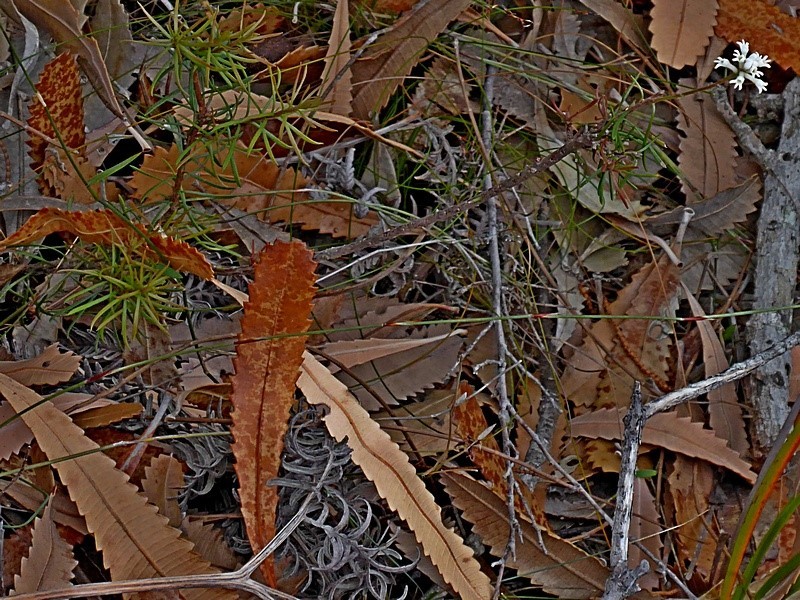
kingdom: Plantae
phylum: Tracheophyta
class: Magnoliopsida
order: Proteales
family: Proteaceae
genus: Conospermum
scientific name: Conospermum taxifolium
